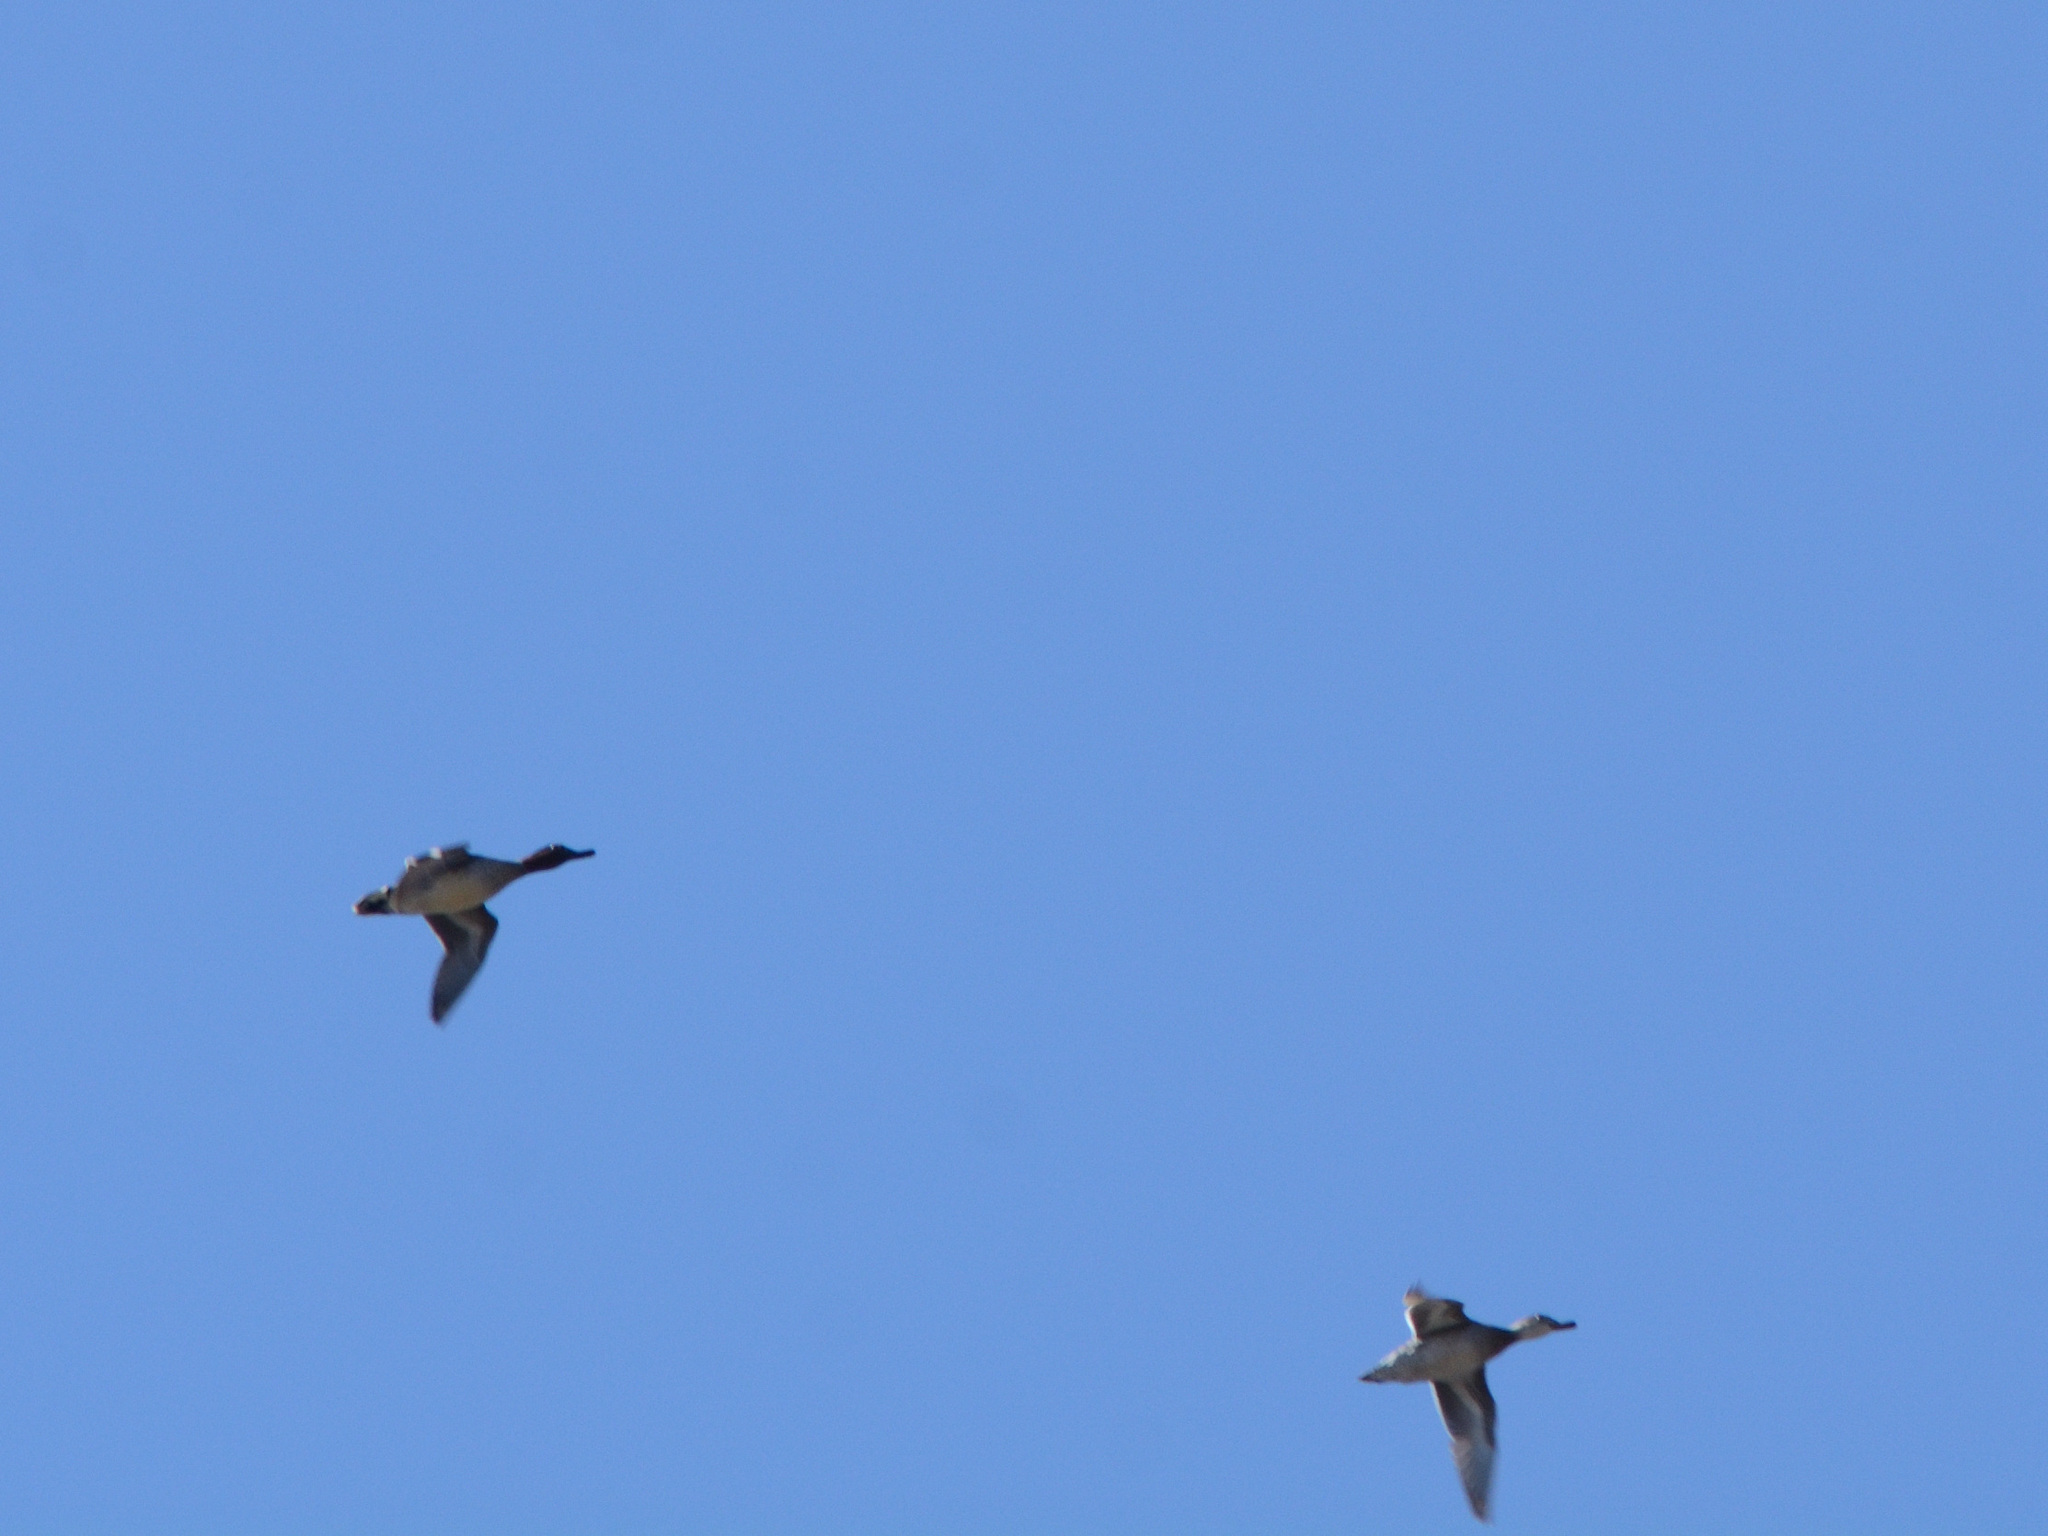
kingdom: Animalia
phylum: Chordata
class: Aves
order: Anseriformes
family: Anatidae
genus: Anas
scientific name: Anas crecca
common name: Eurasian teal
